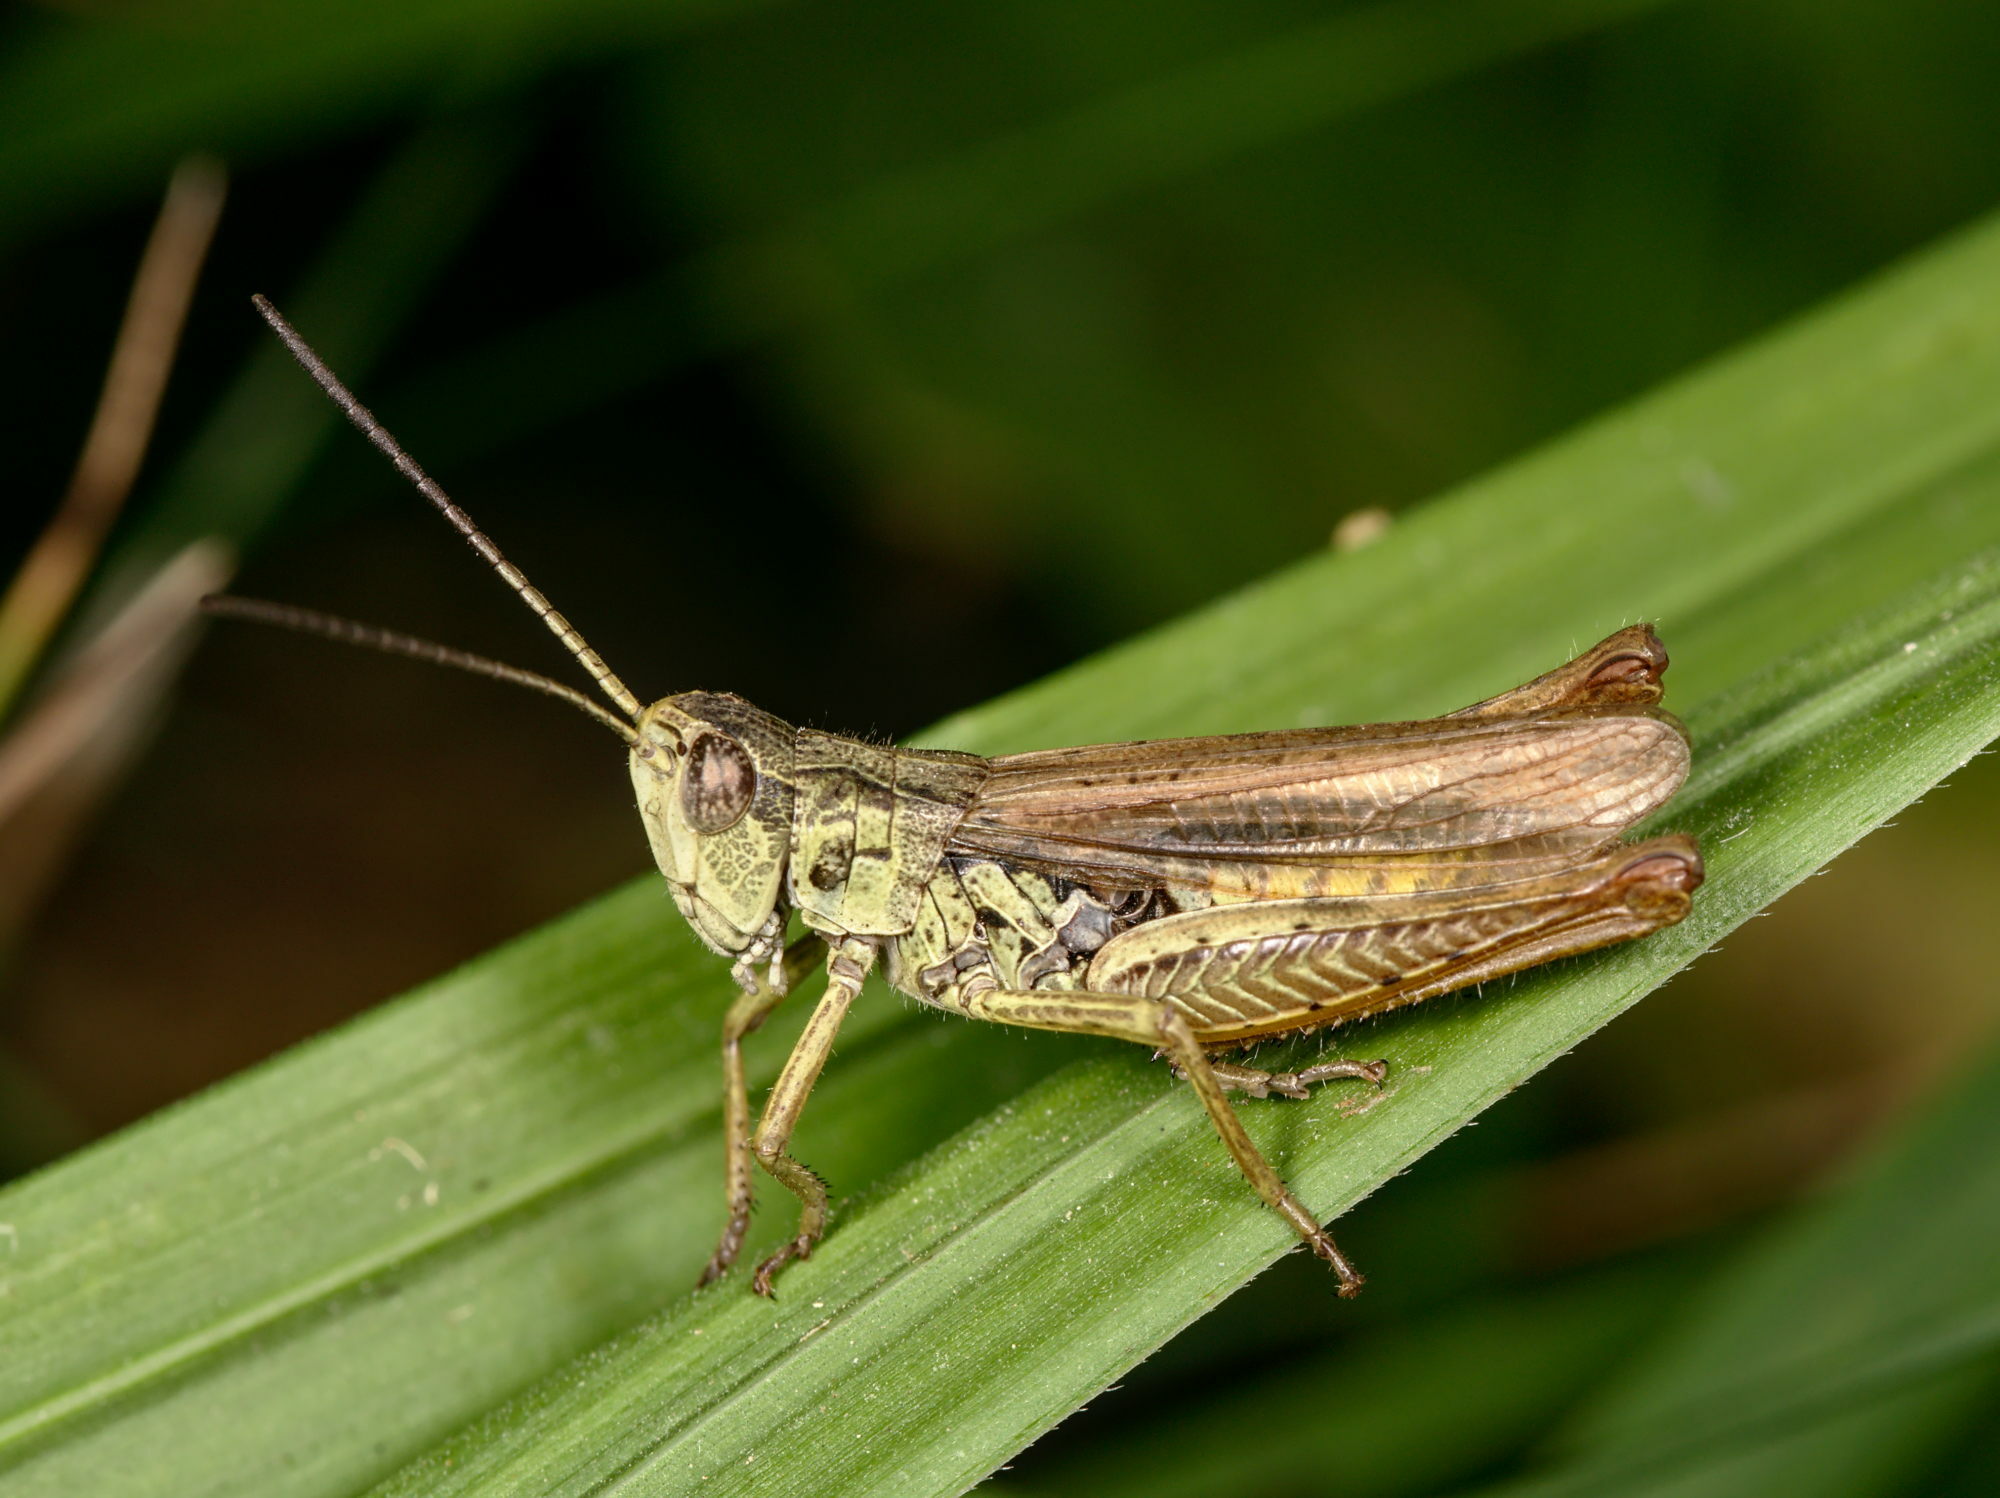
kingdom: Animalia
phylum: Arthropoda
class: Insecta
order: Orthoptera
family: Acrididae
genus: Chorthippus
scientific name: Chorthippus apricarius
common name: Upland field grasshopper
